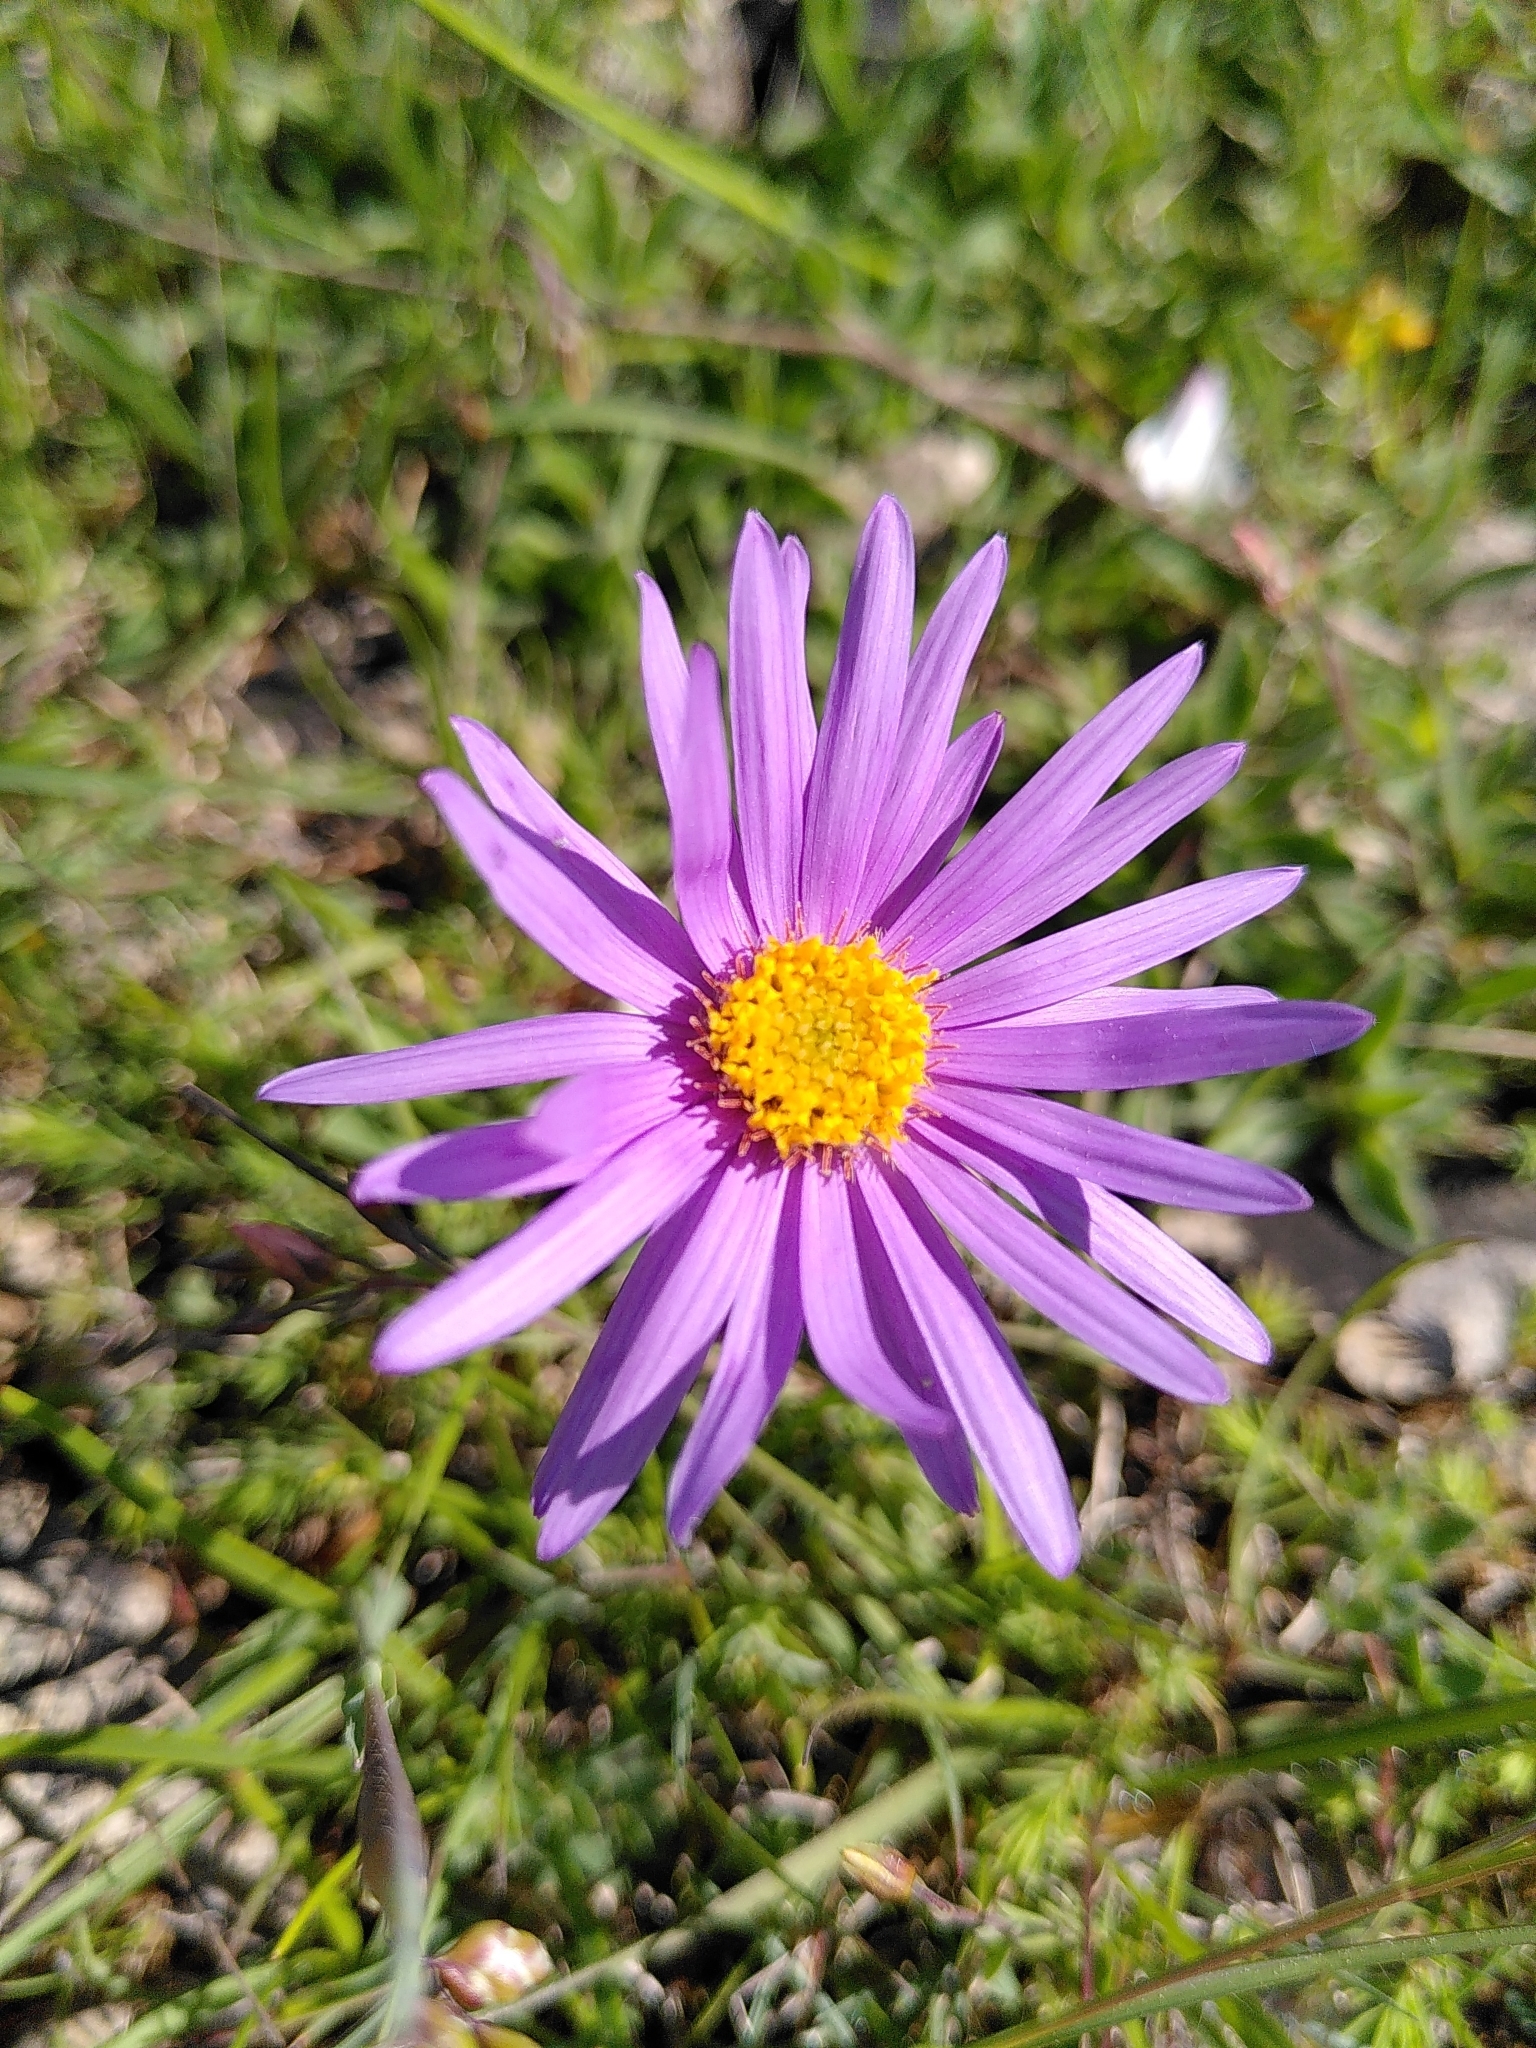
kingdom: Plantae
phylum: Tracheophyta
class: Magnoliopsida
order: Asterales
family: Asteraceae
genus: Aster
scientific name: Aster alpinus
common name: Alpine aster
